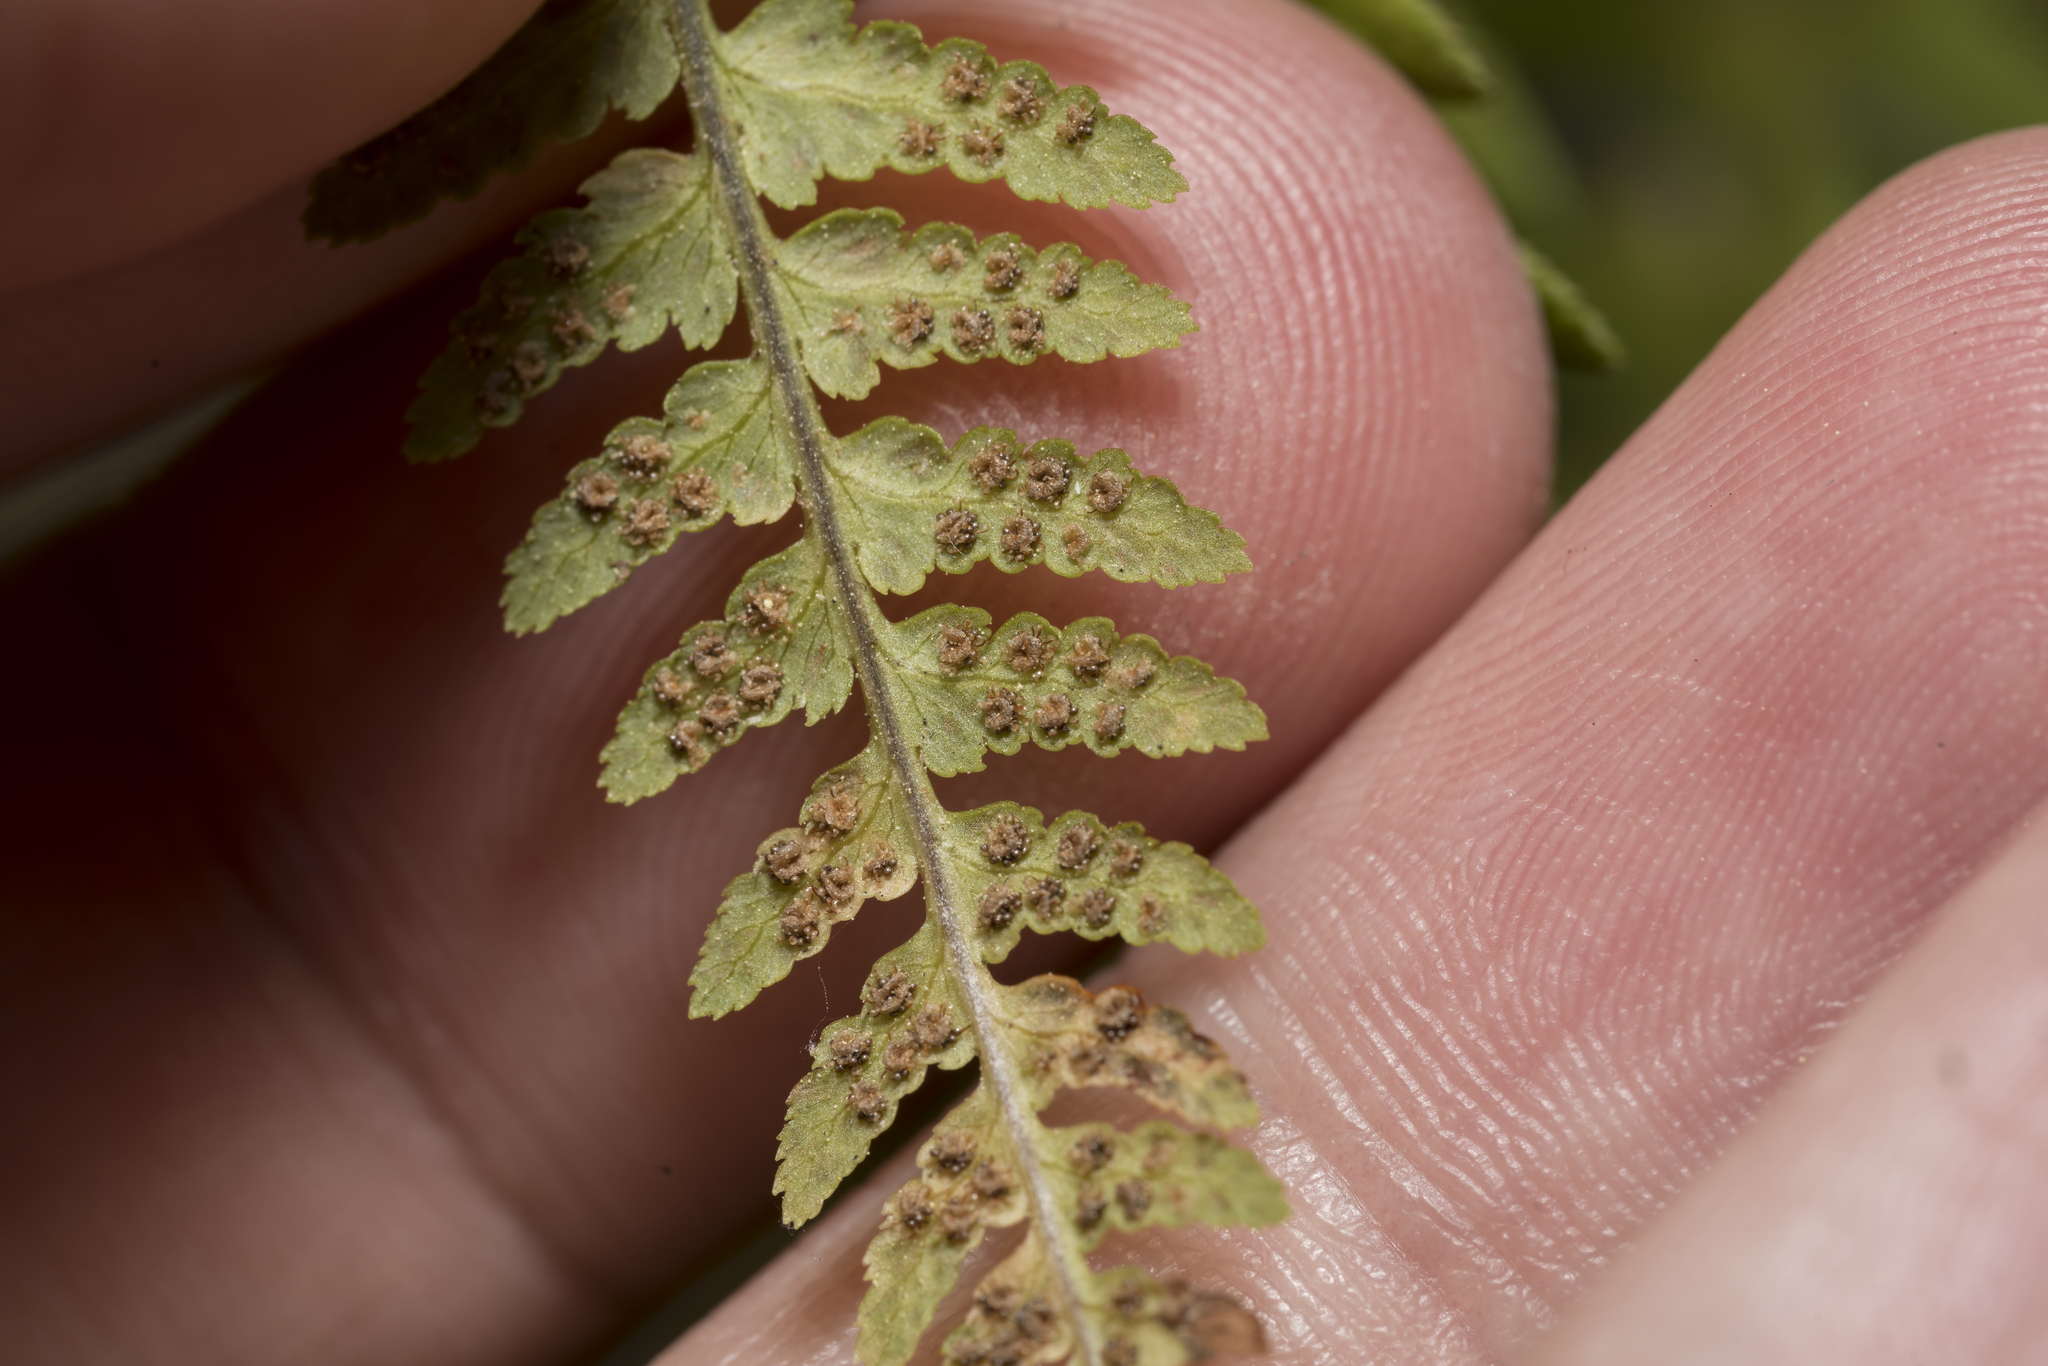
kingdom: Plantae
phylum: Tracheophyta
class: Polypodiopsida
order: Polypodiales
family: Dryopteridaceae
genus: Dryopteris
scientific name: Dryopteris pallida
